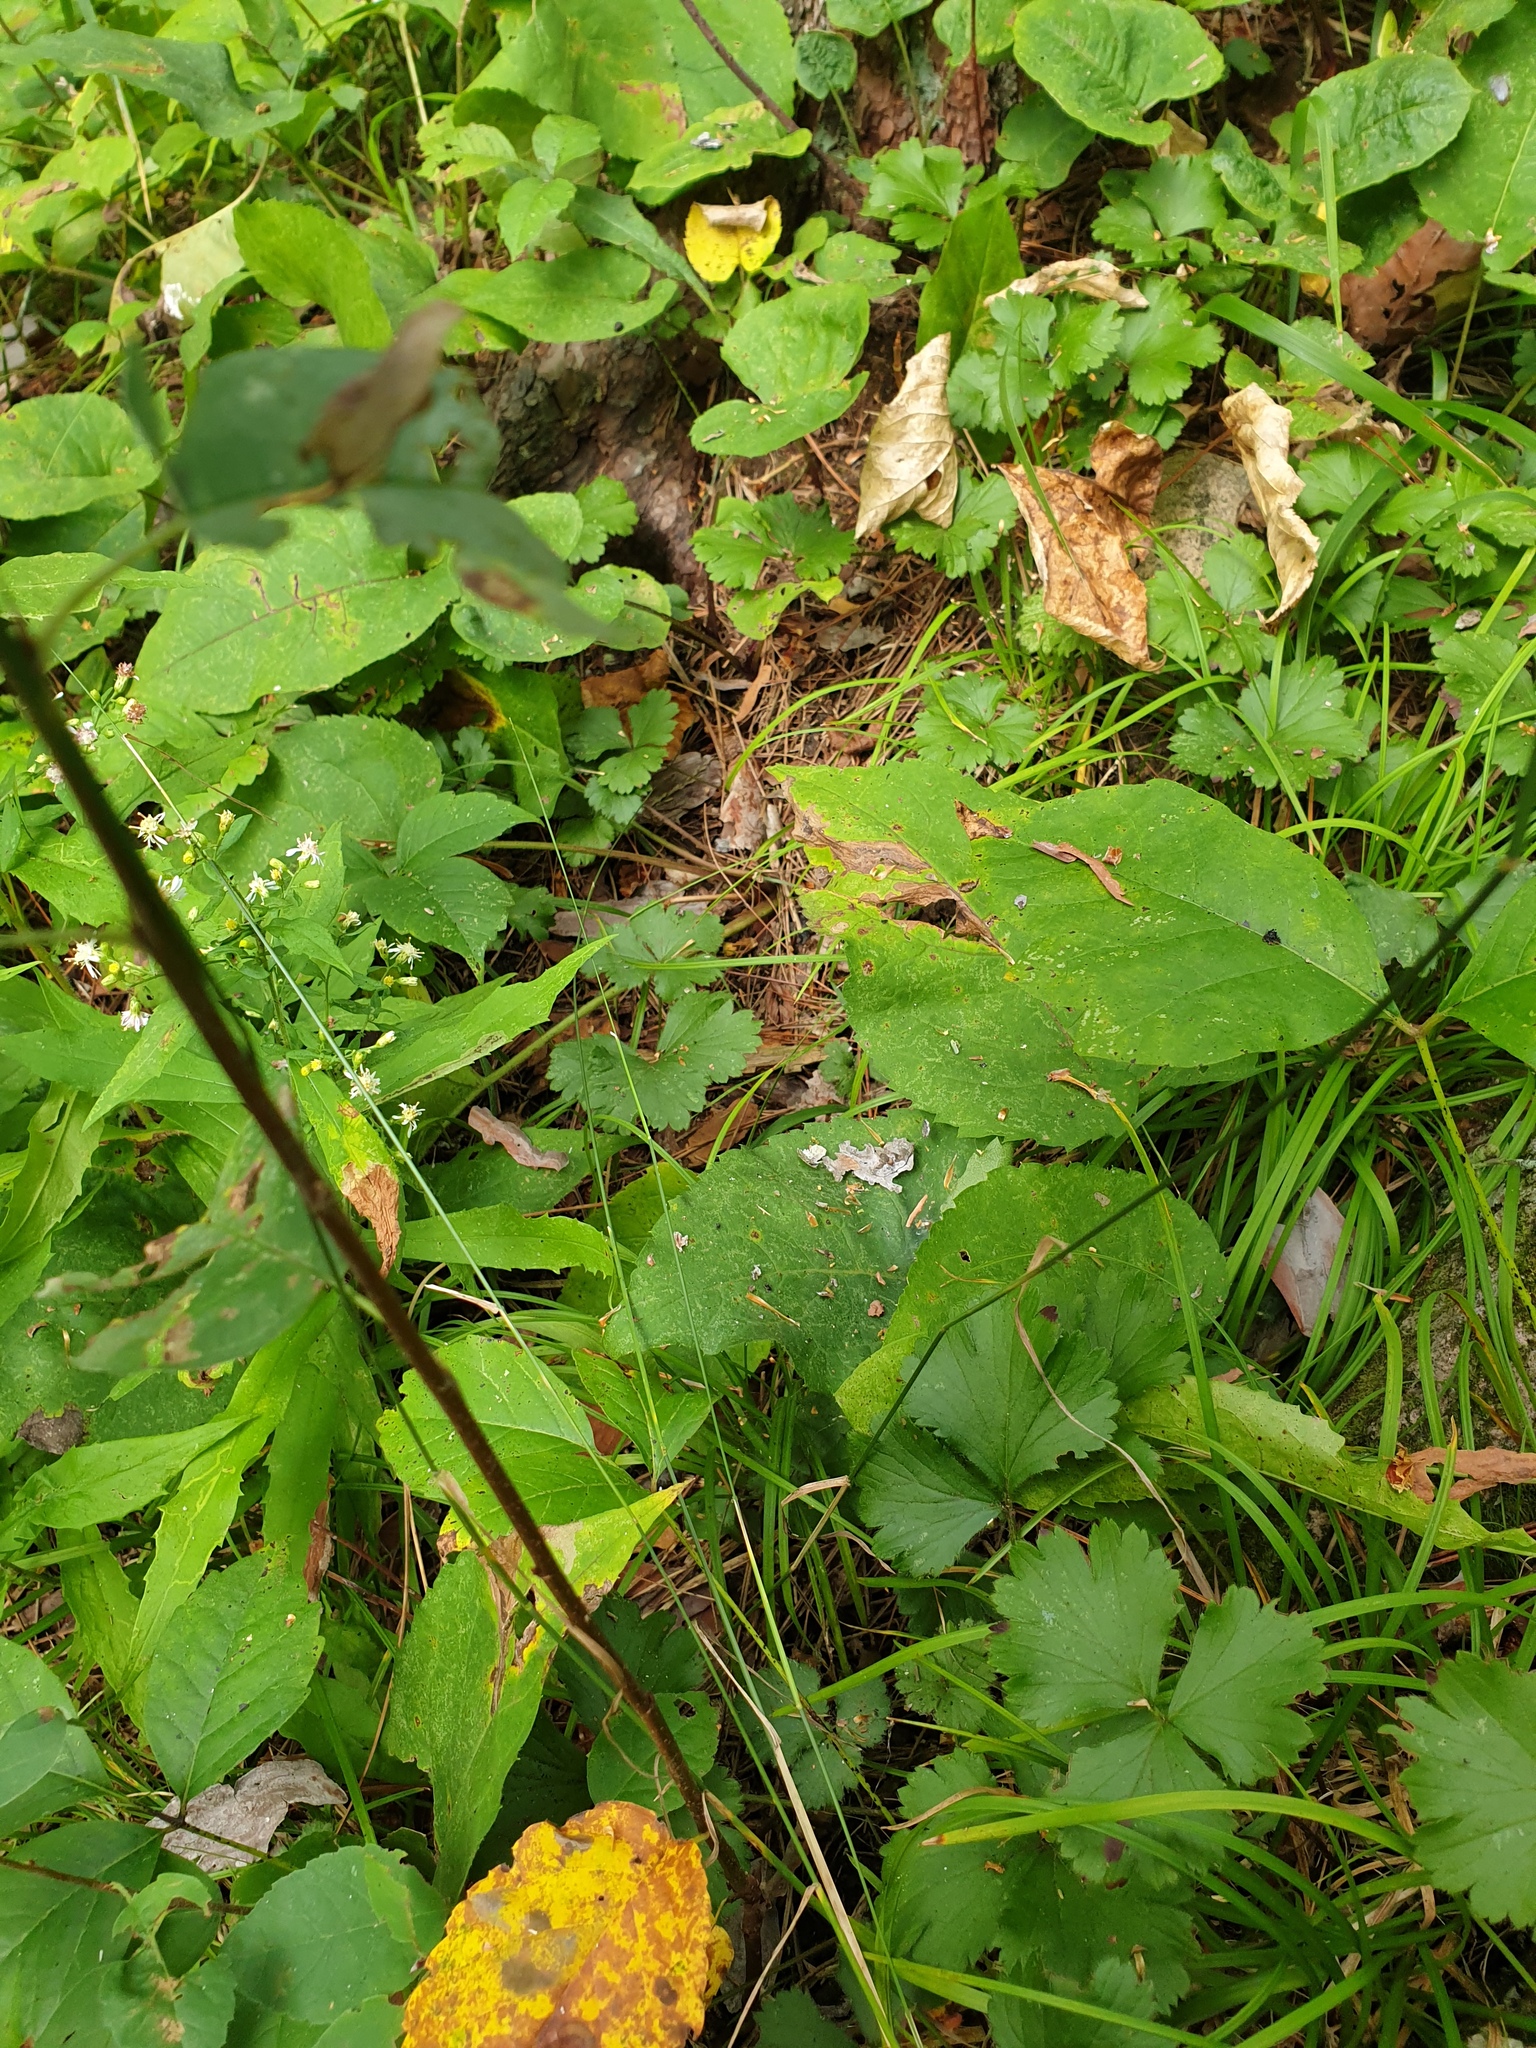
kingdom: Plantae
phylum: Tracheophyta
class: Liliopsida
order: Poales
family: Poaceae
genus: Poa
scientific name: Poa compressa
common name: Canada bluegrass
